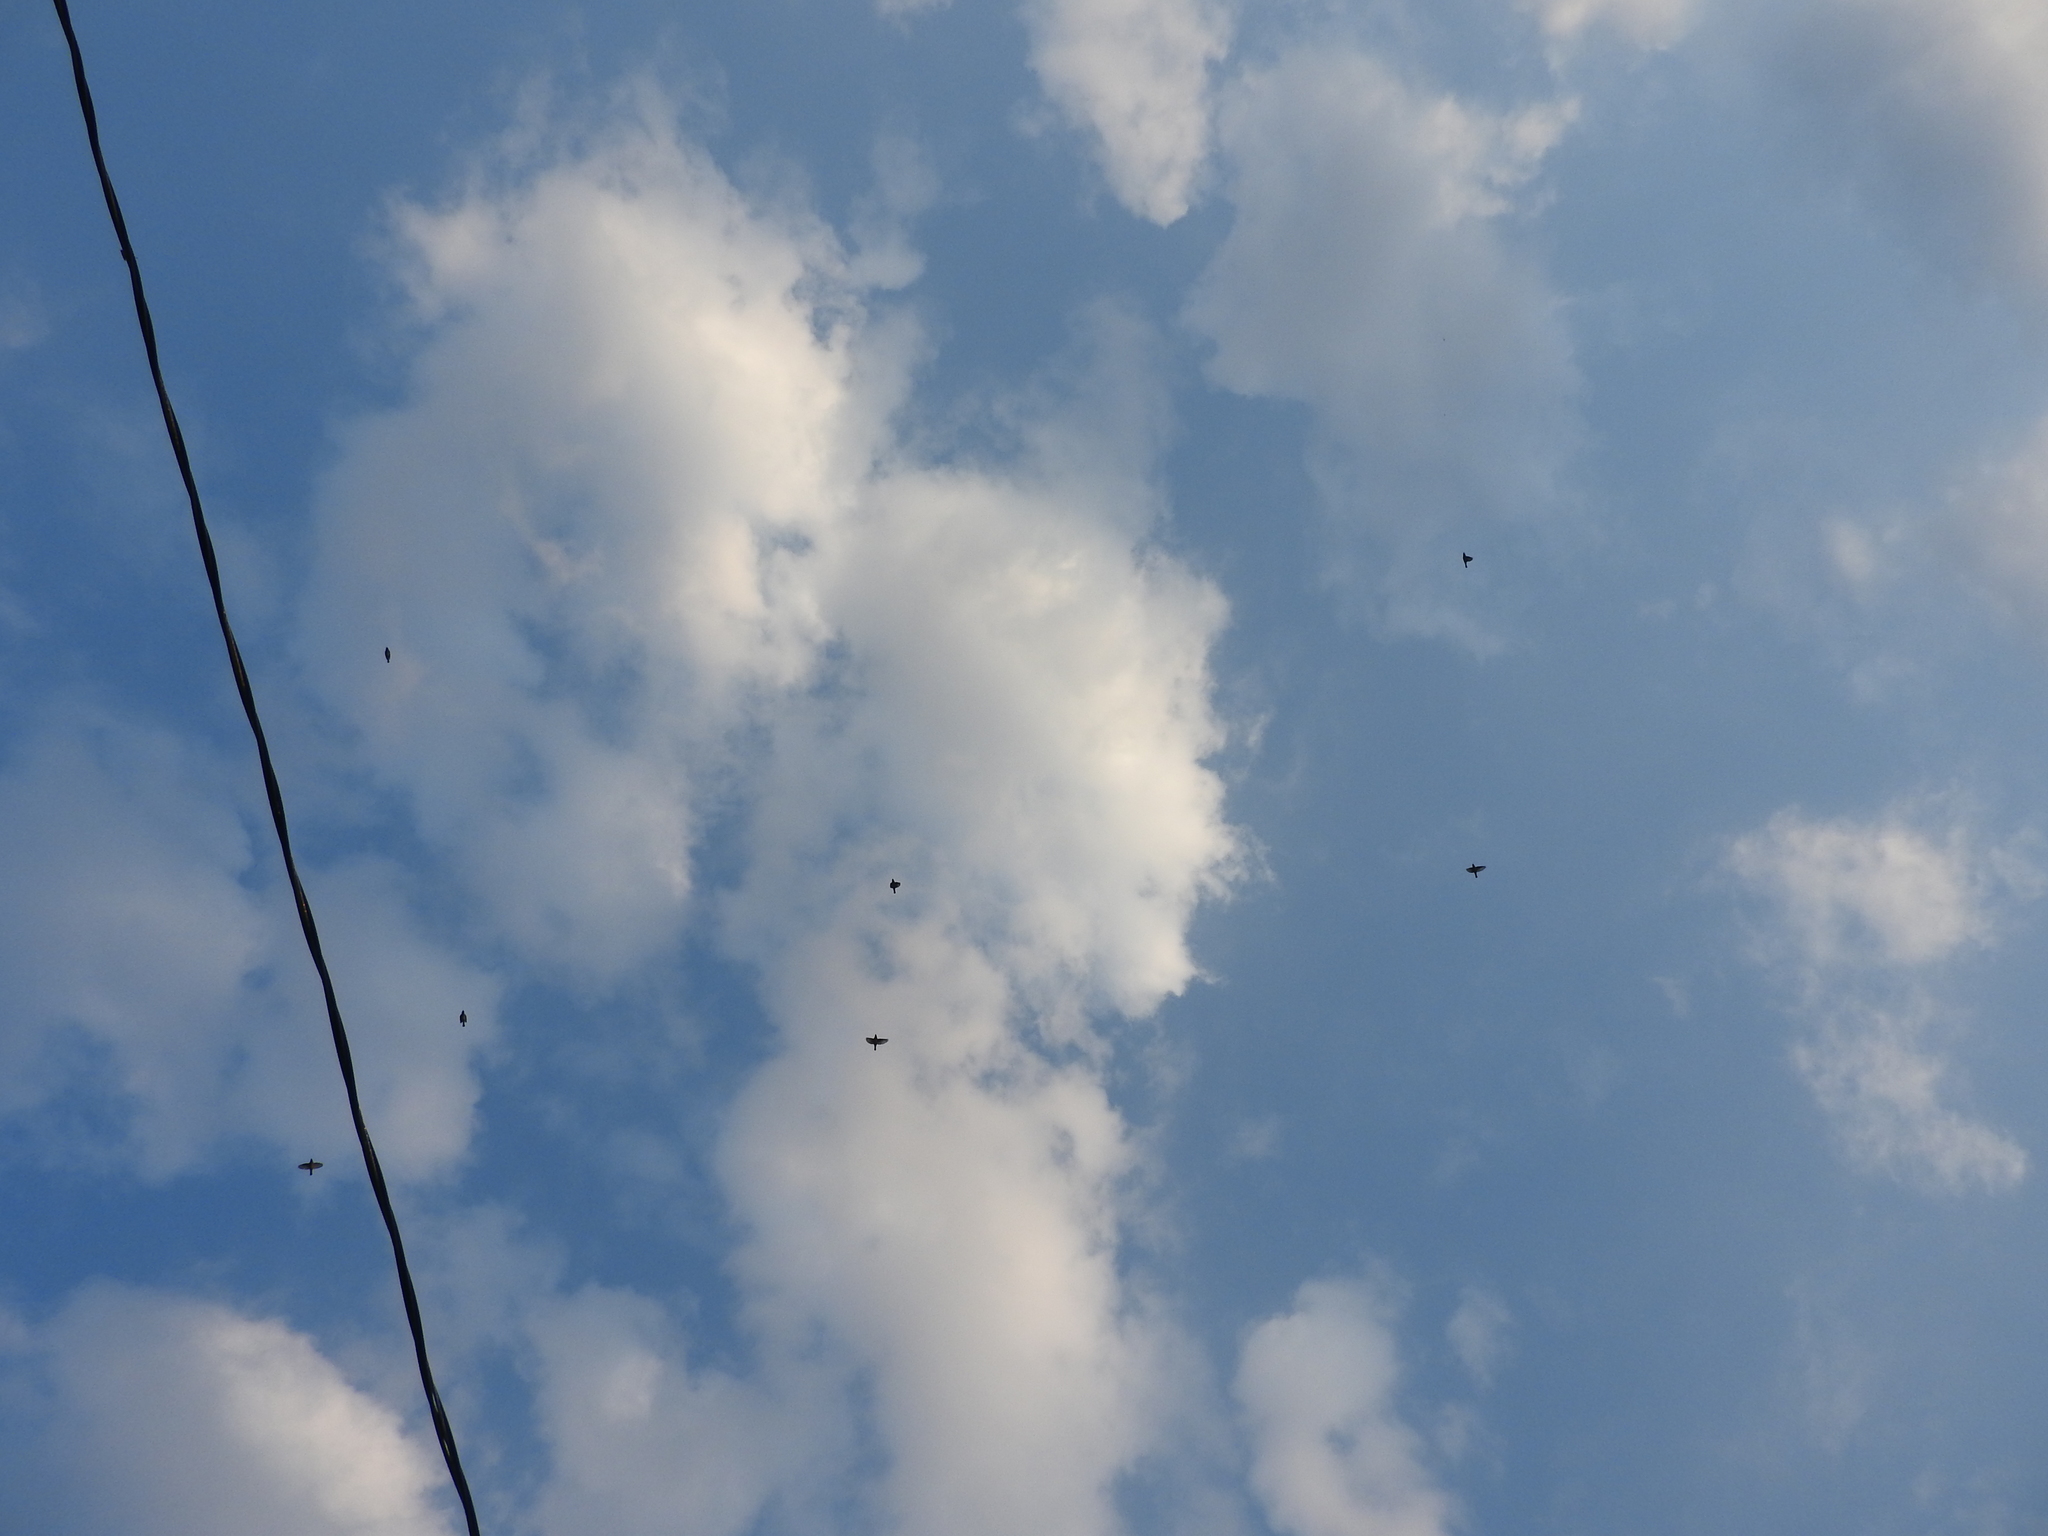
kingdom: Animalia
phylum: Chordata
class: Aves
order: Passeriformes
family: Bombycillidae
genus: Bombycilla
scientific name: Bombycilla cedrorum
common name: Cedar waxwing
